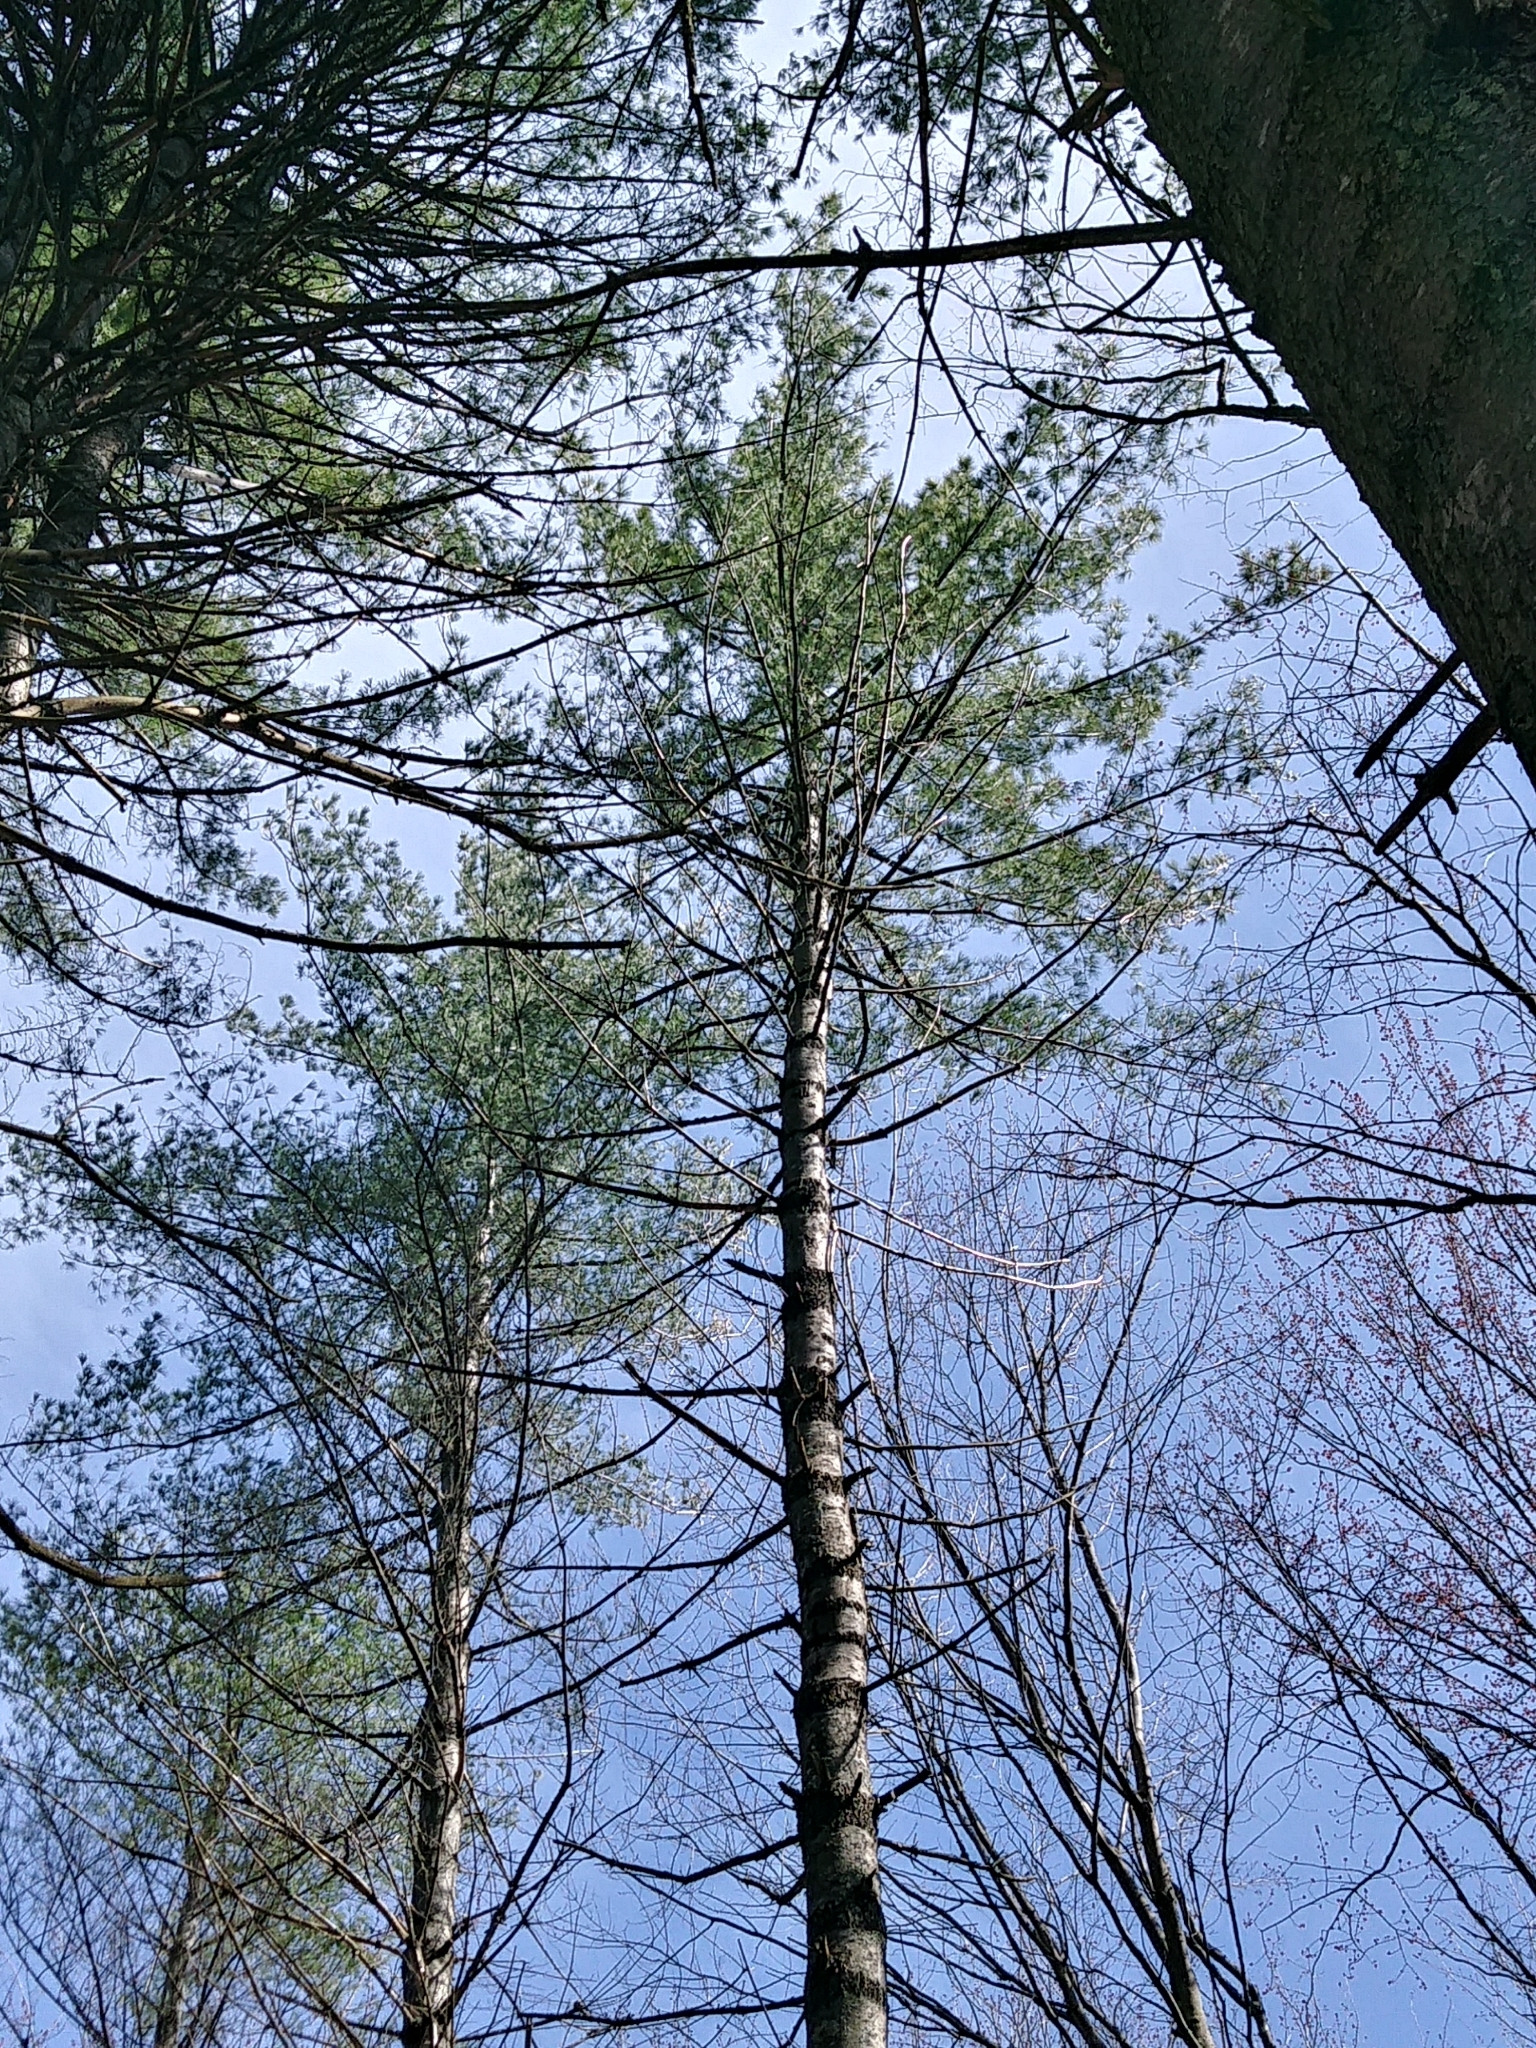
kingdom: Plantae
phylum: Tracheophyta
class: Pinopsida
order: Pinales
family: Pinaceae
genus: Pinus
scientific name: Pinus strobus
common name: Weymouth pine
